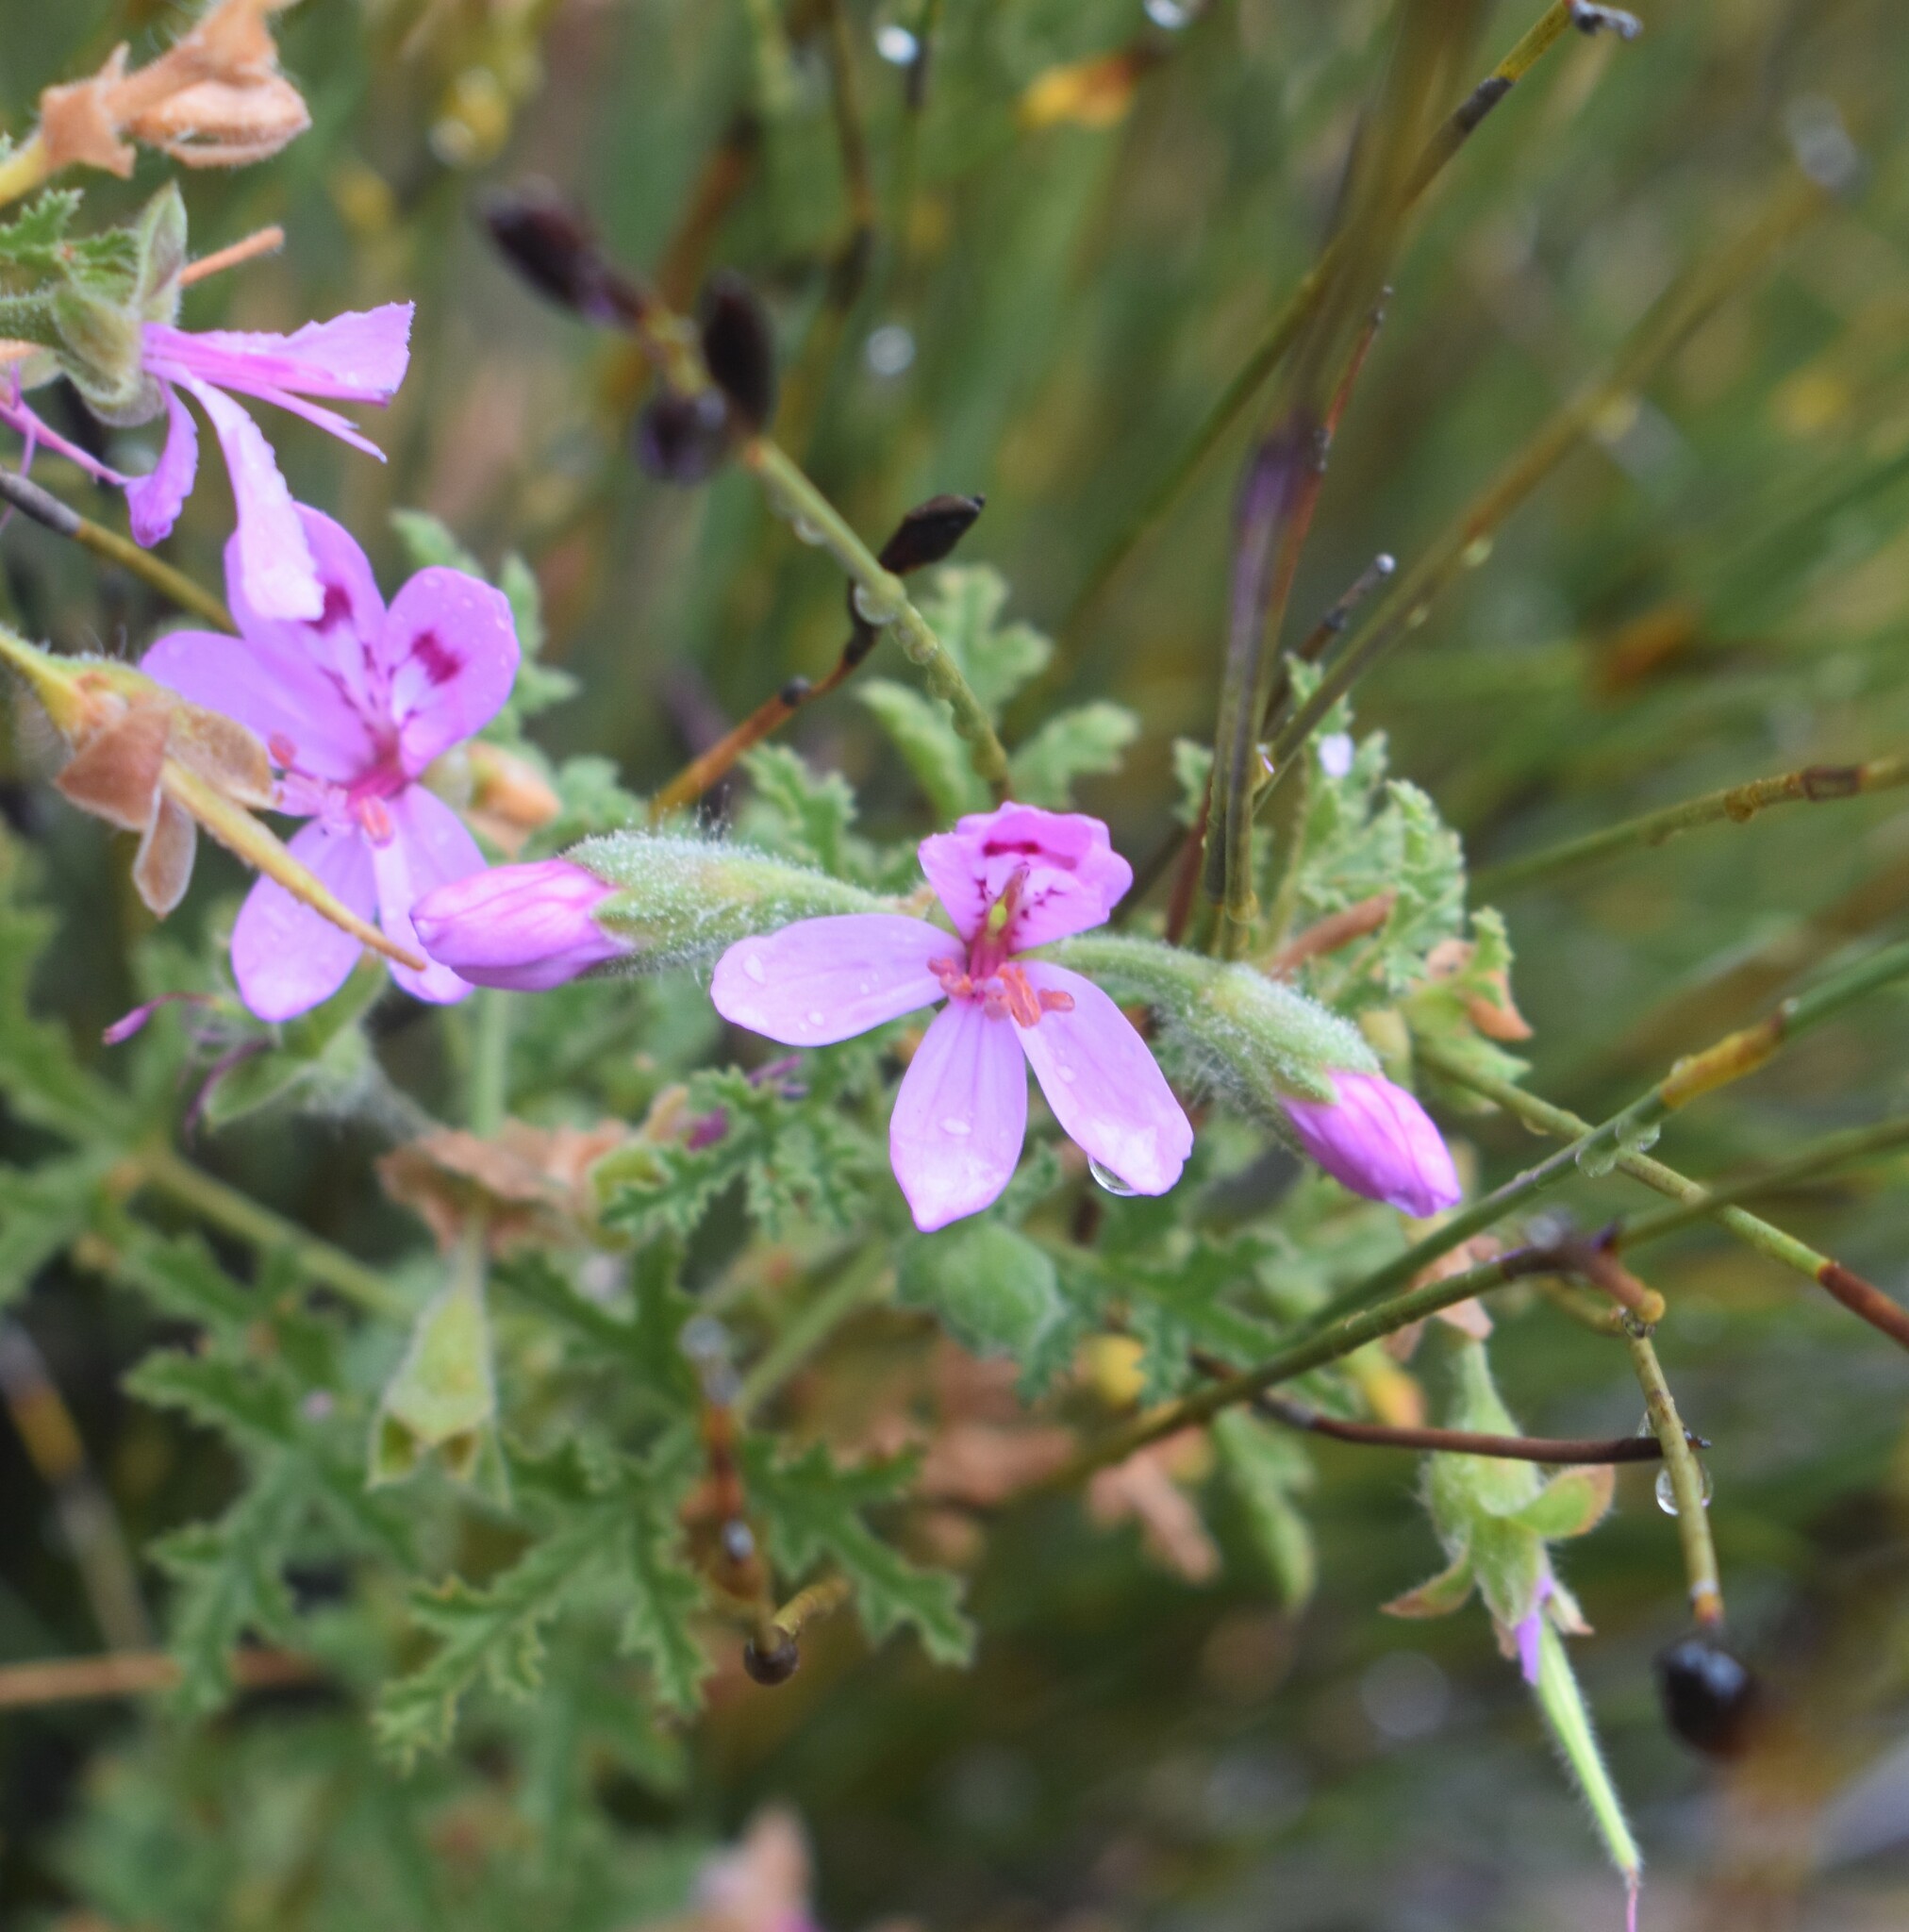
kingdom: Plantae
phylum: Tracheophyta
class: Magnoliopsida
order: Geraniales
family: Geraniaceae
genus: Pelargonium
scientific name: Pelargonium glutinosum
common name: Pheasant-foot geranium
